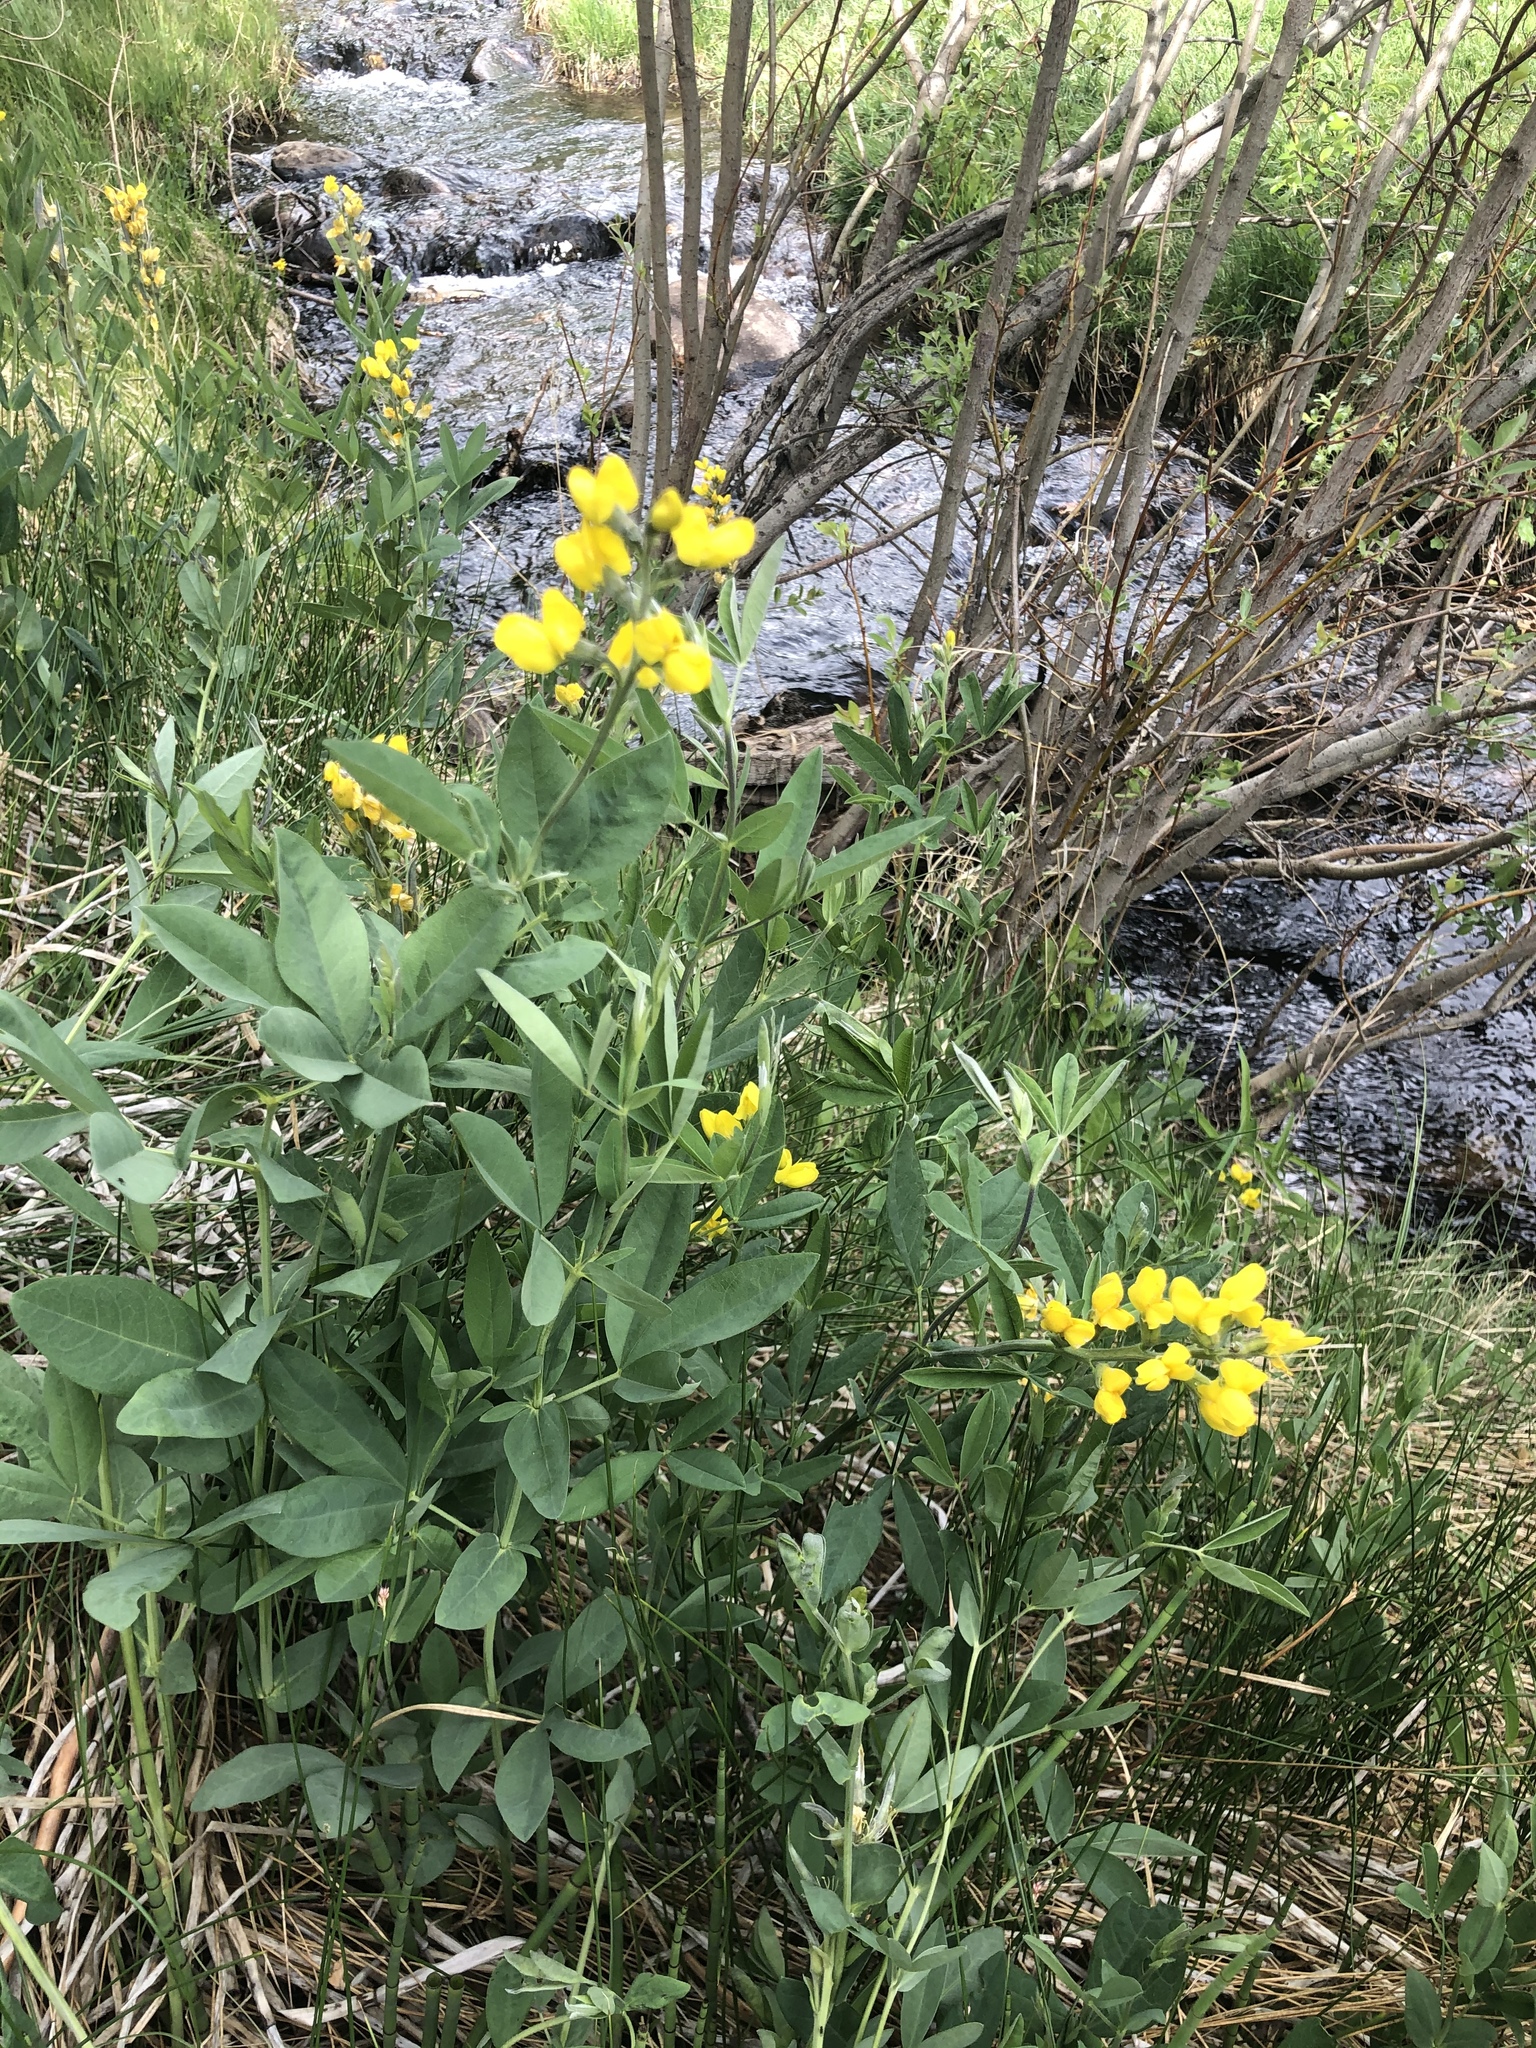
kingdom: Plantae
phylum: Tracheophyta
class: Magnoliopsida
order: Fabales
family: Fabaceae
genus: Thermopsis
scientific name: Thermopsis montana
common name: False lupin
